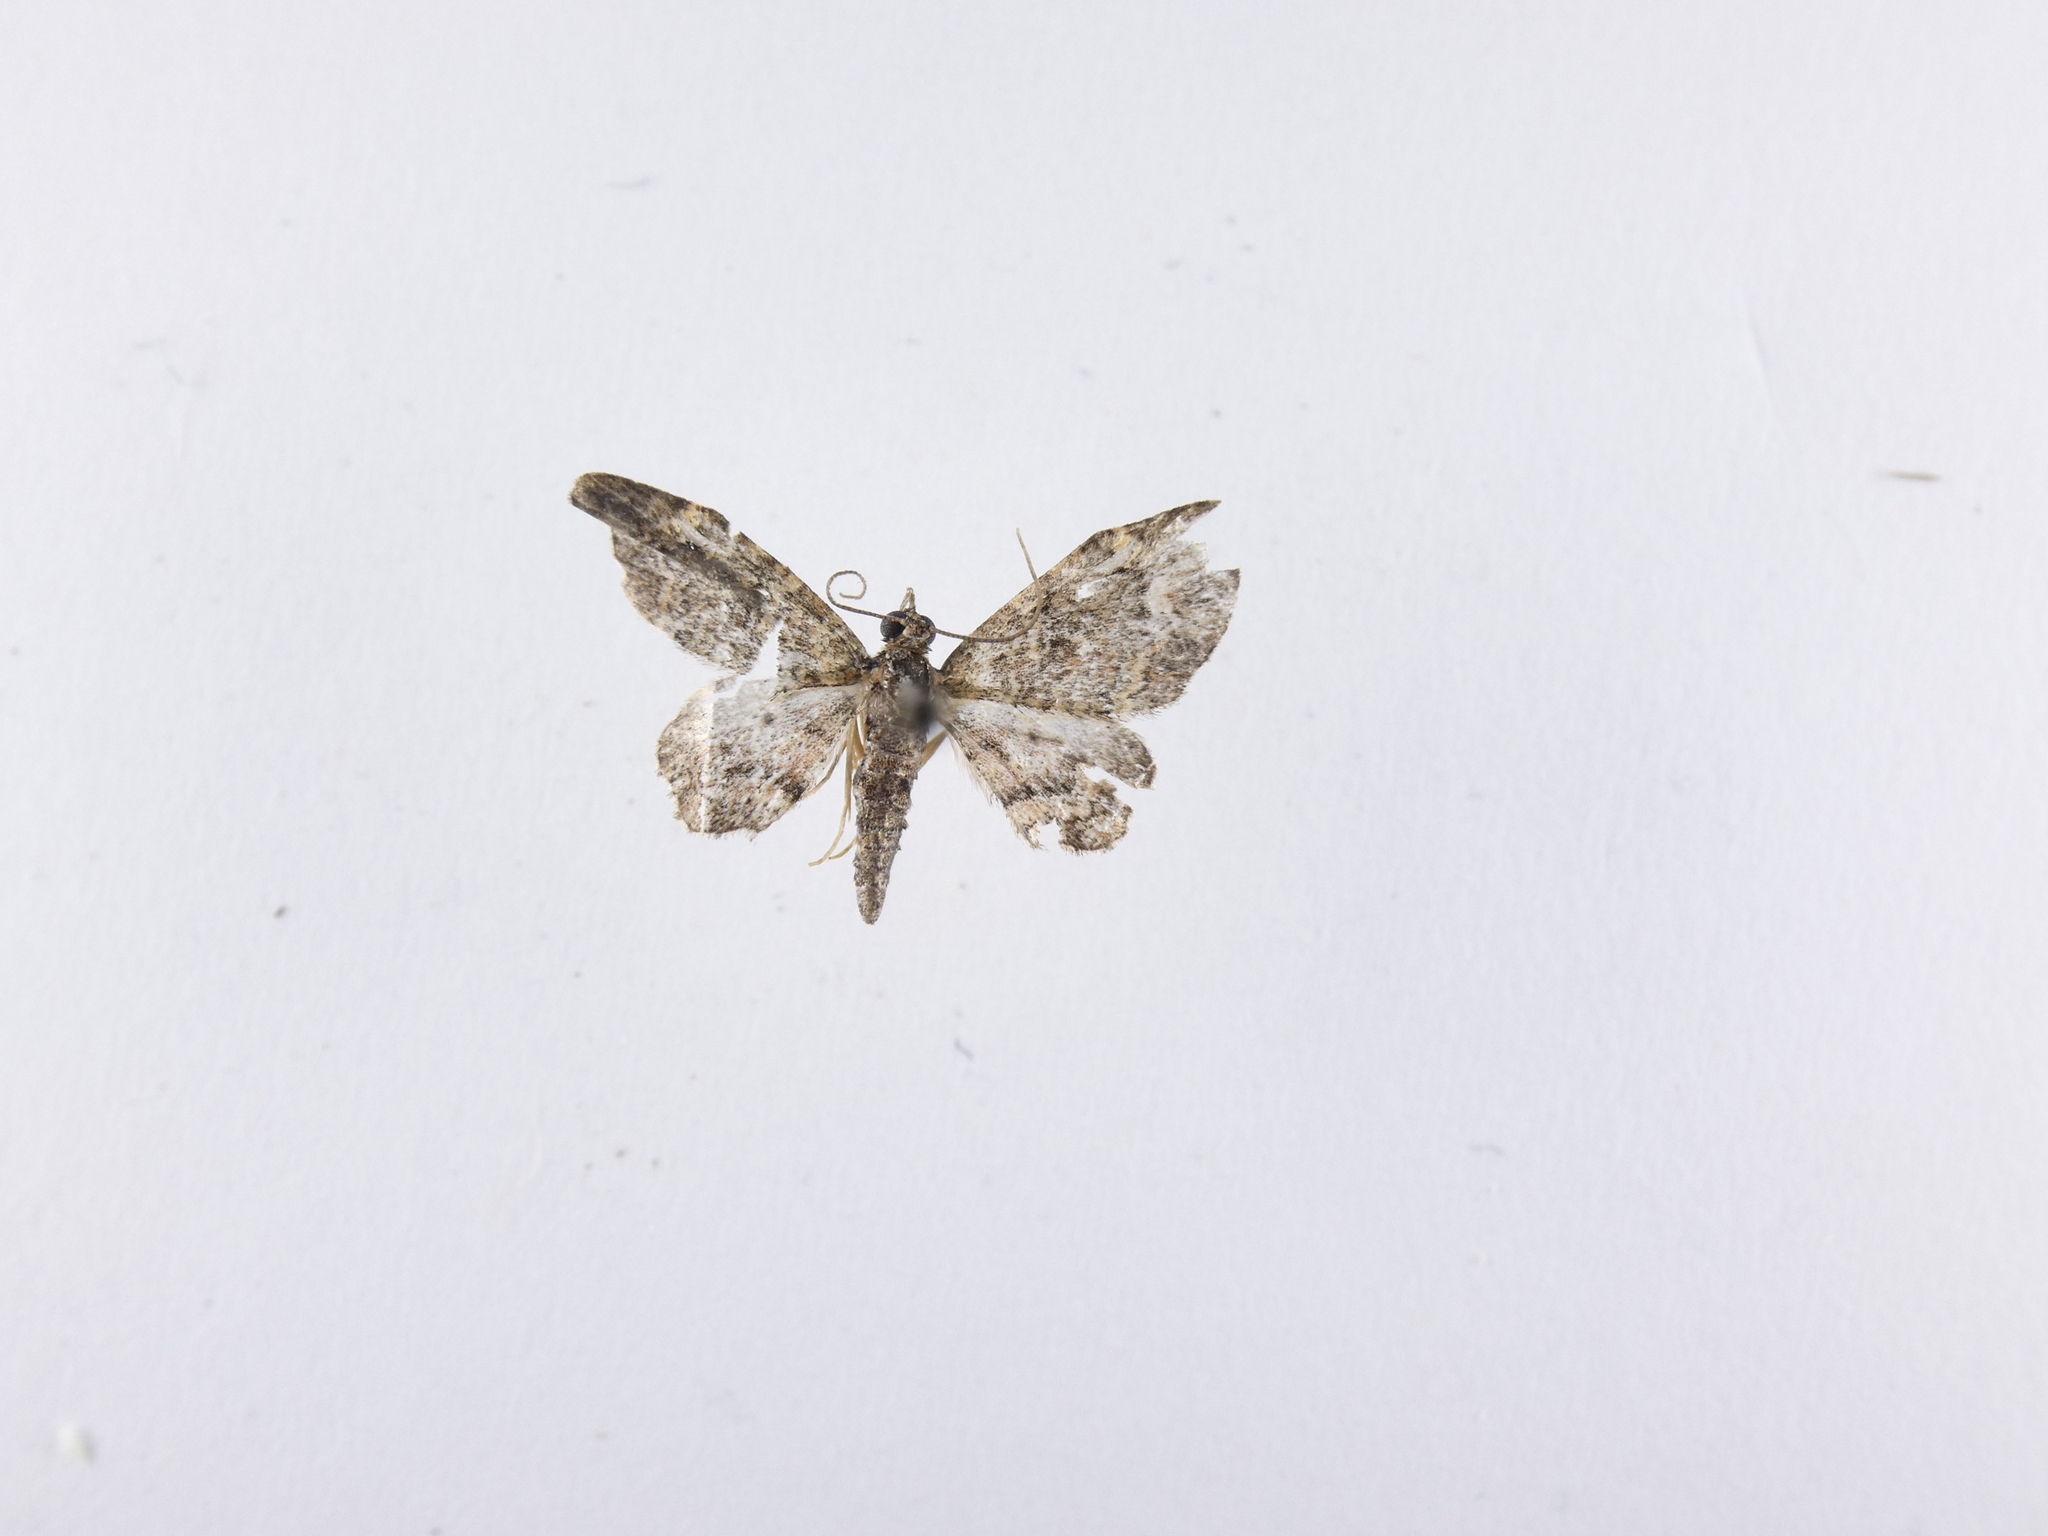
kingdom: Animalia
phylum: Arthropoda
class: Insecta
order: Lepidoptera
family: Geometridae
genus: Pasiphilodes
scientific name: Pasiphilodes testulata
